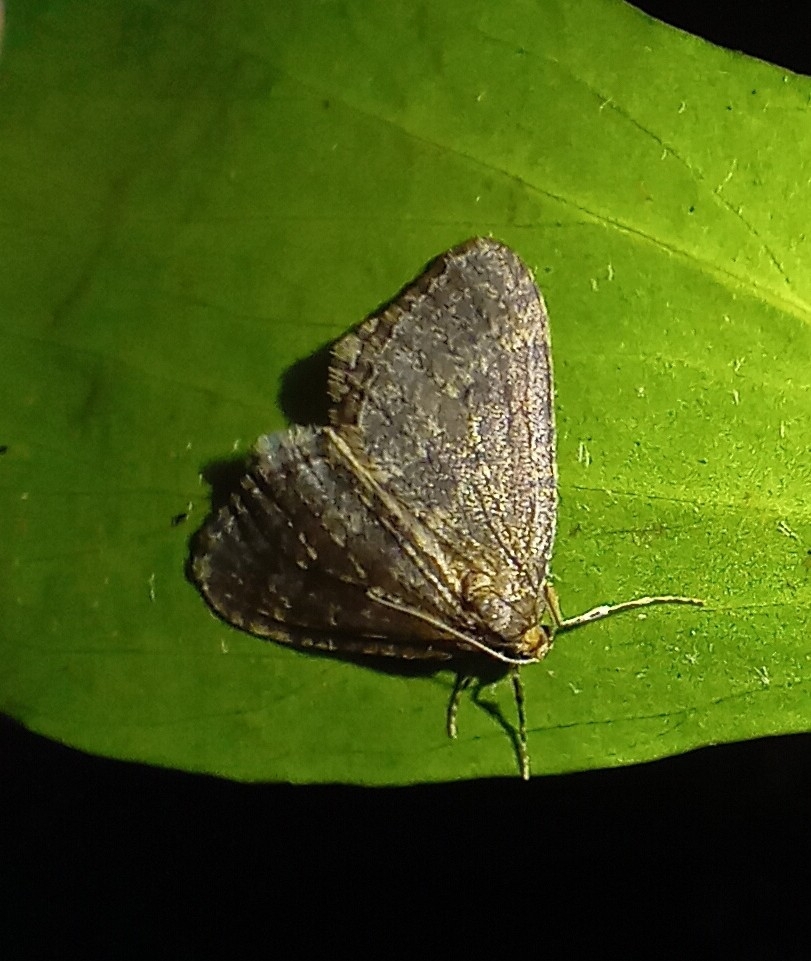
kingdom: Animalia
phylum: Arthropoda
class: Insecta
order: Lepidoptera
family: Geometridae
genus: Operophtera
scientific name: Operophtera brumata
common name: Winter moth
